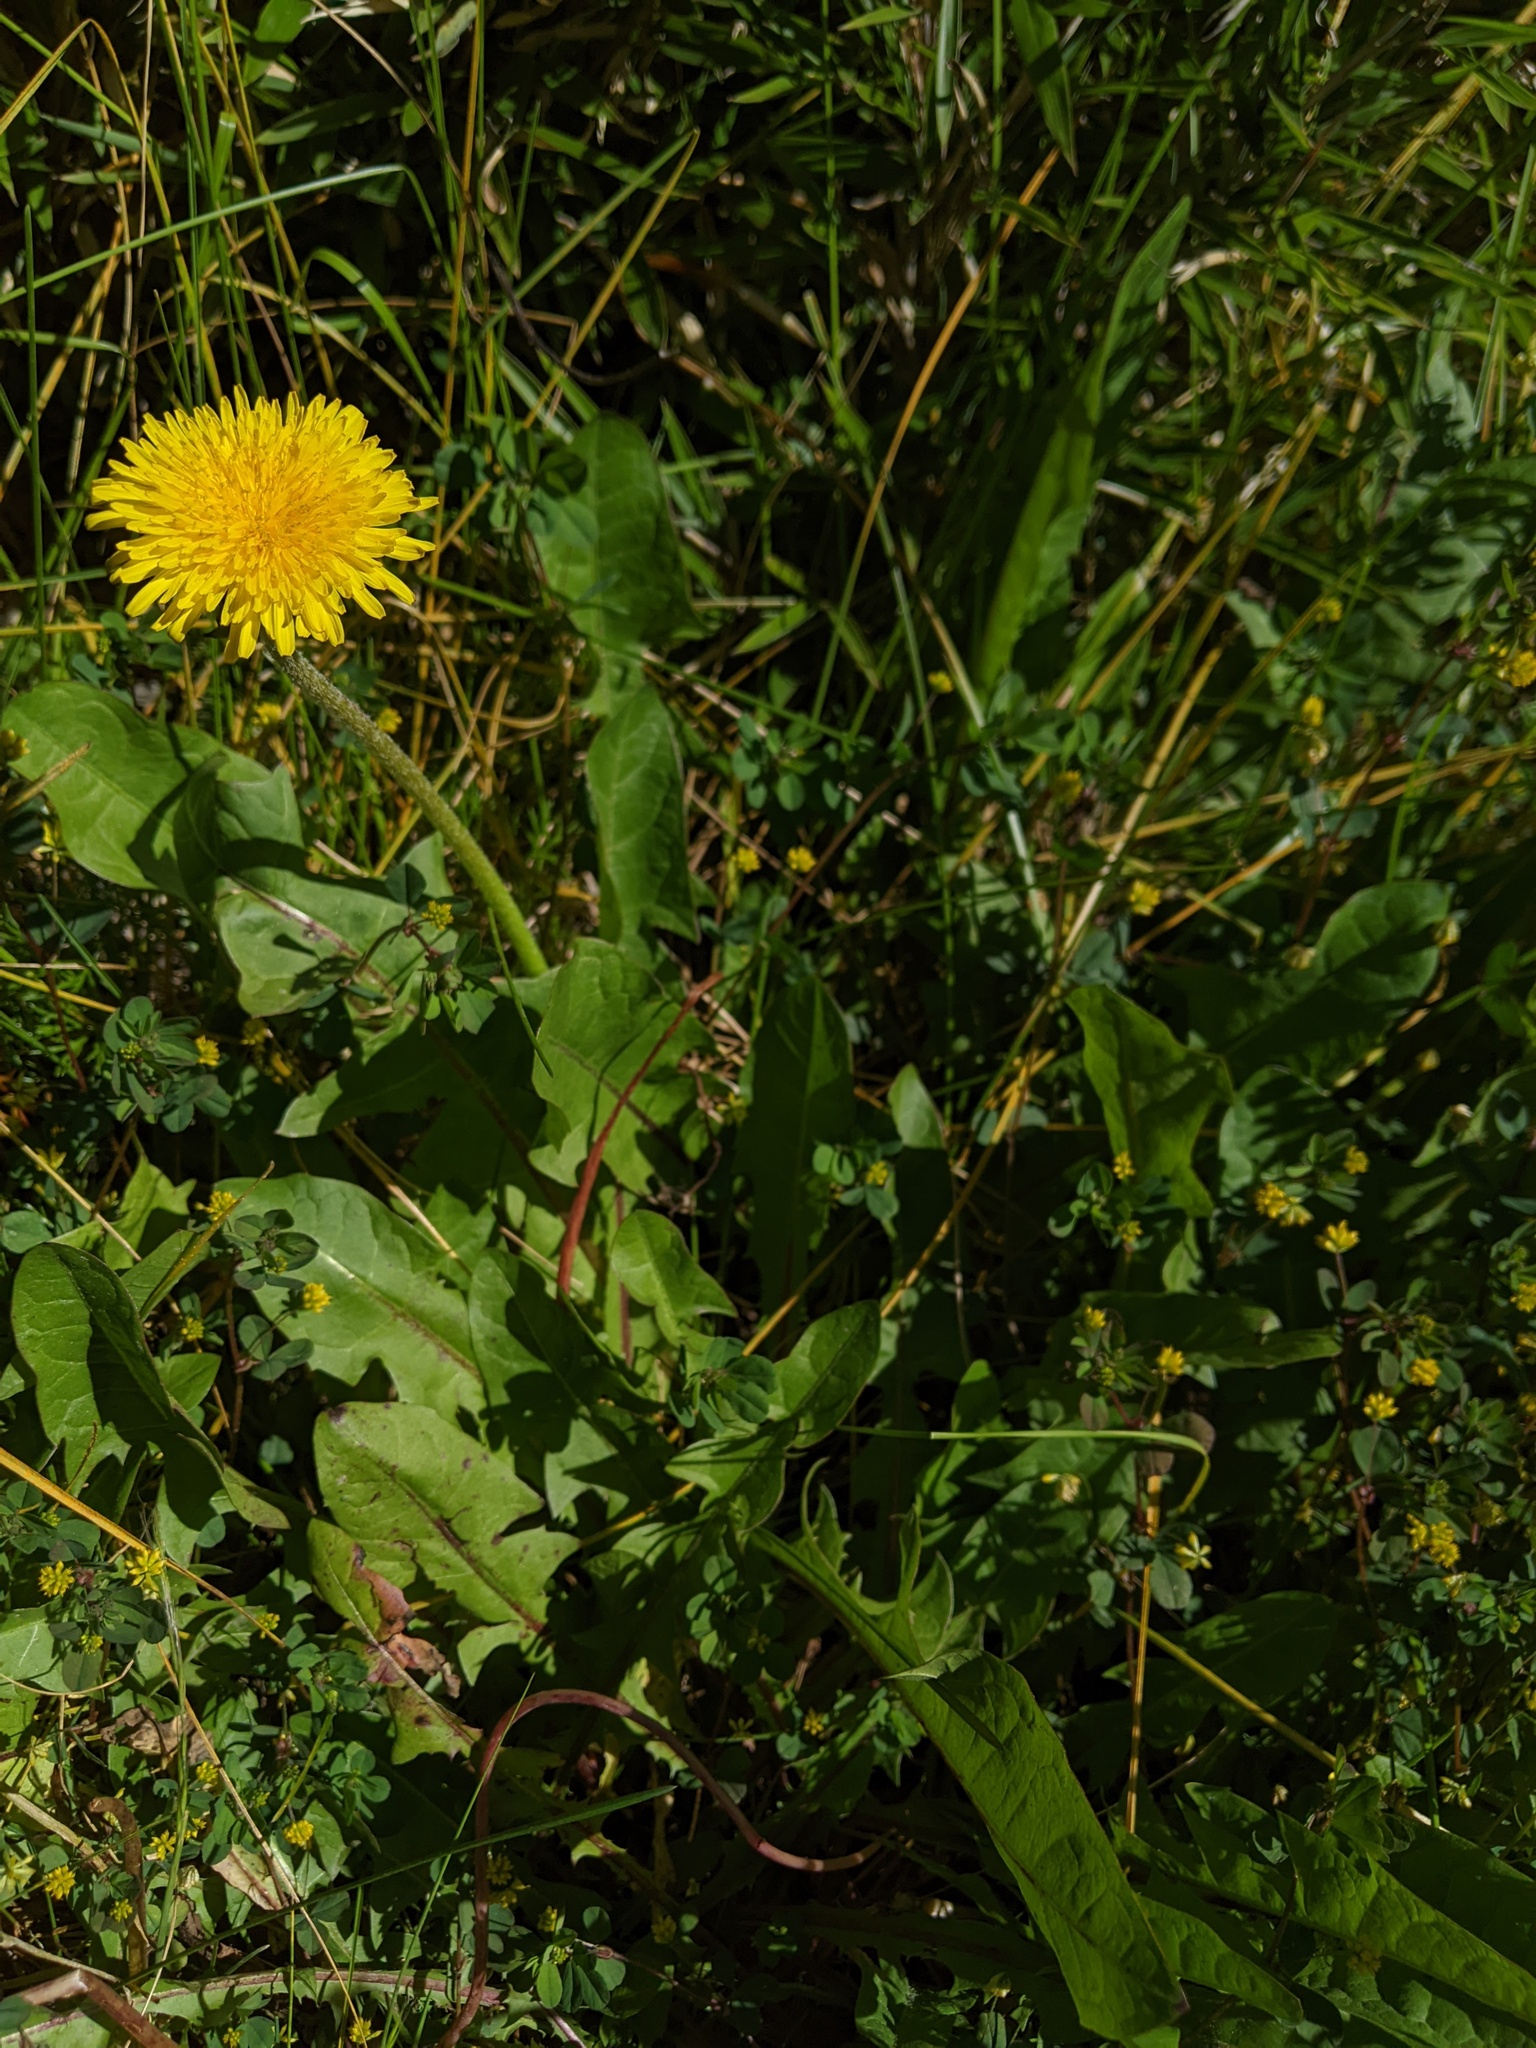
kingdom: Plantae
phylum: Tracheophyta
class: Magnoliopsida
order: Asterales
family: Asteraceae
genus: Taraxacum
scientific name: Taraxacum officinale
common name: Common dandelion
